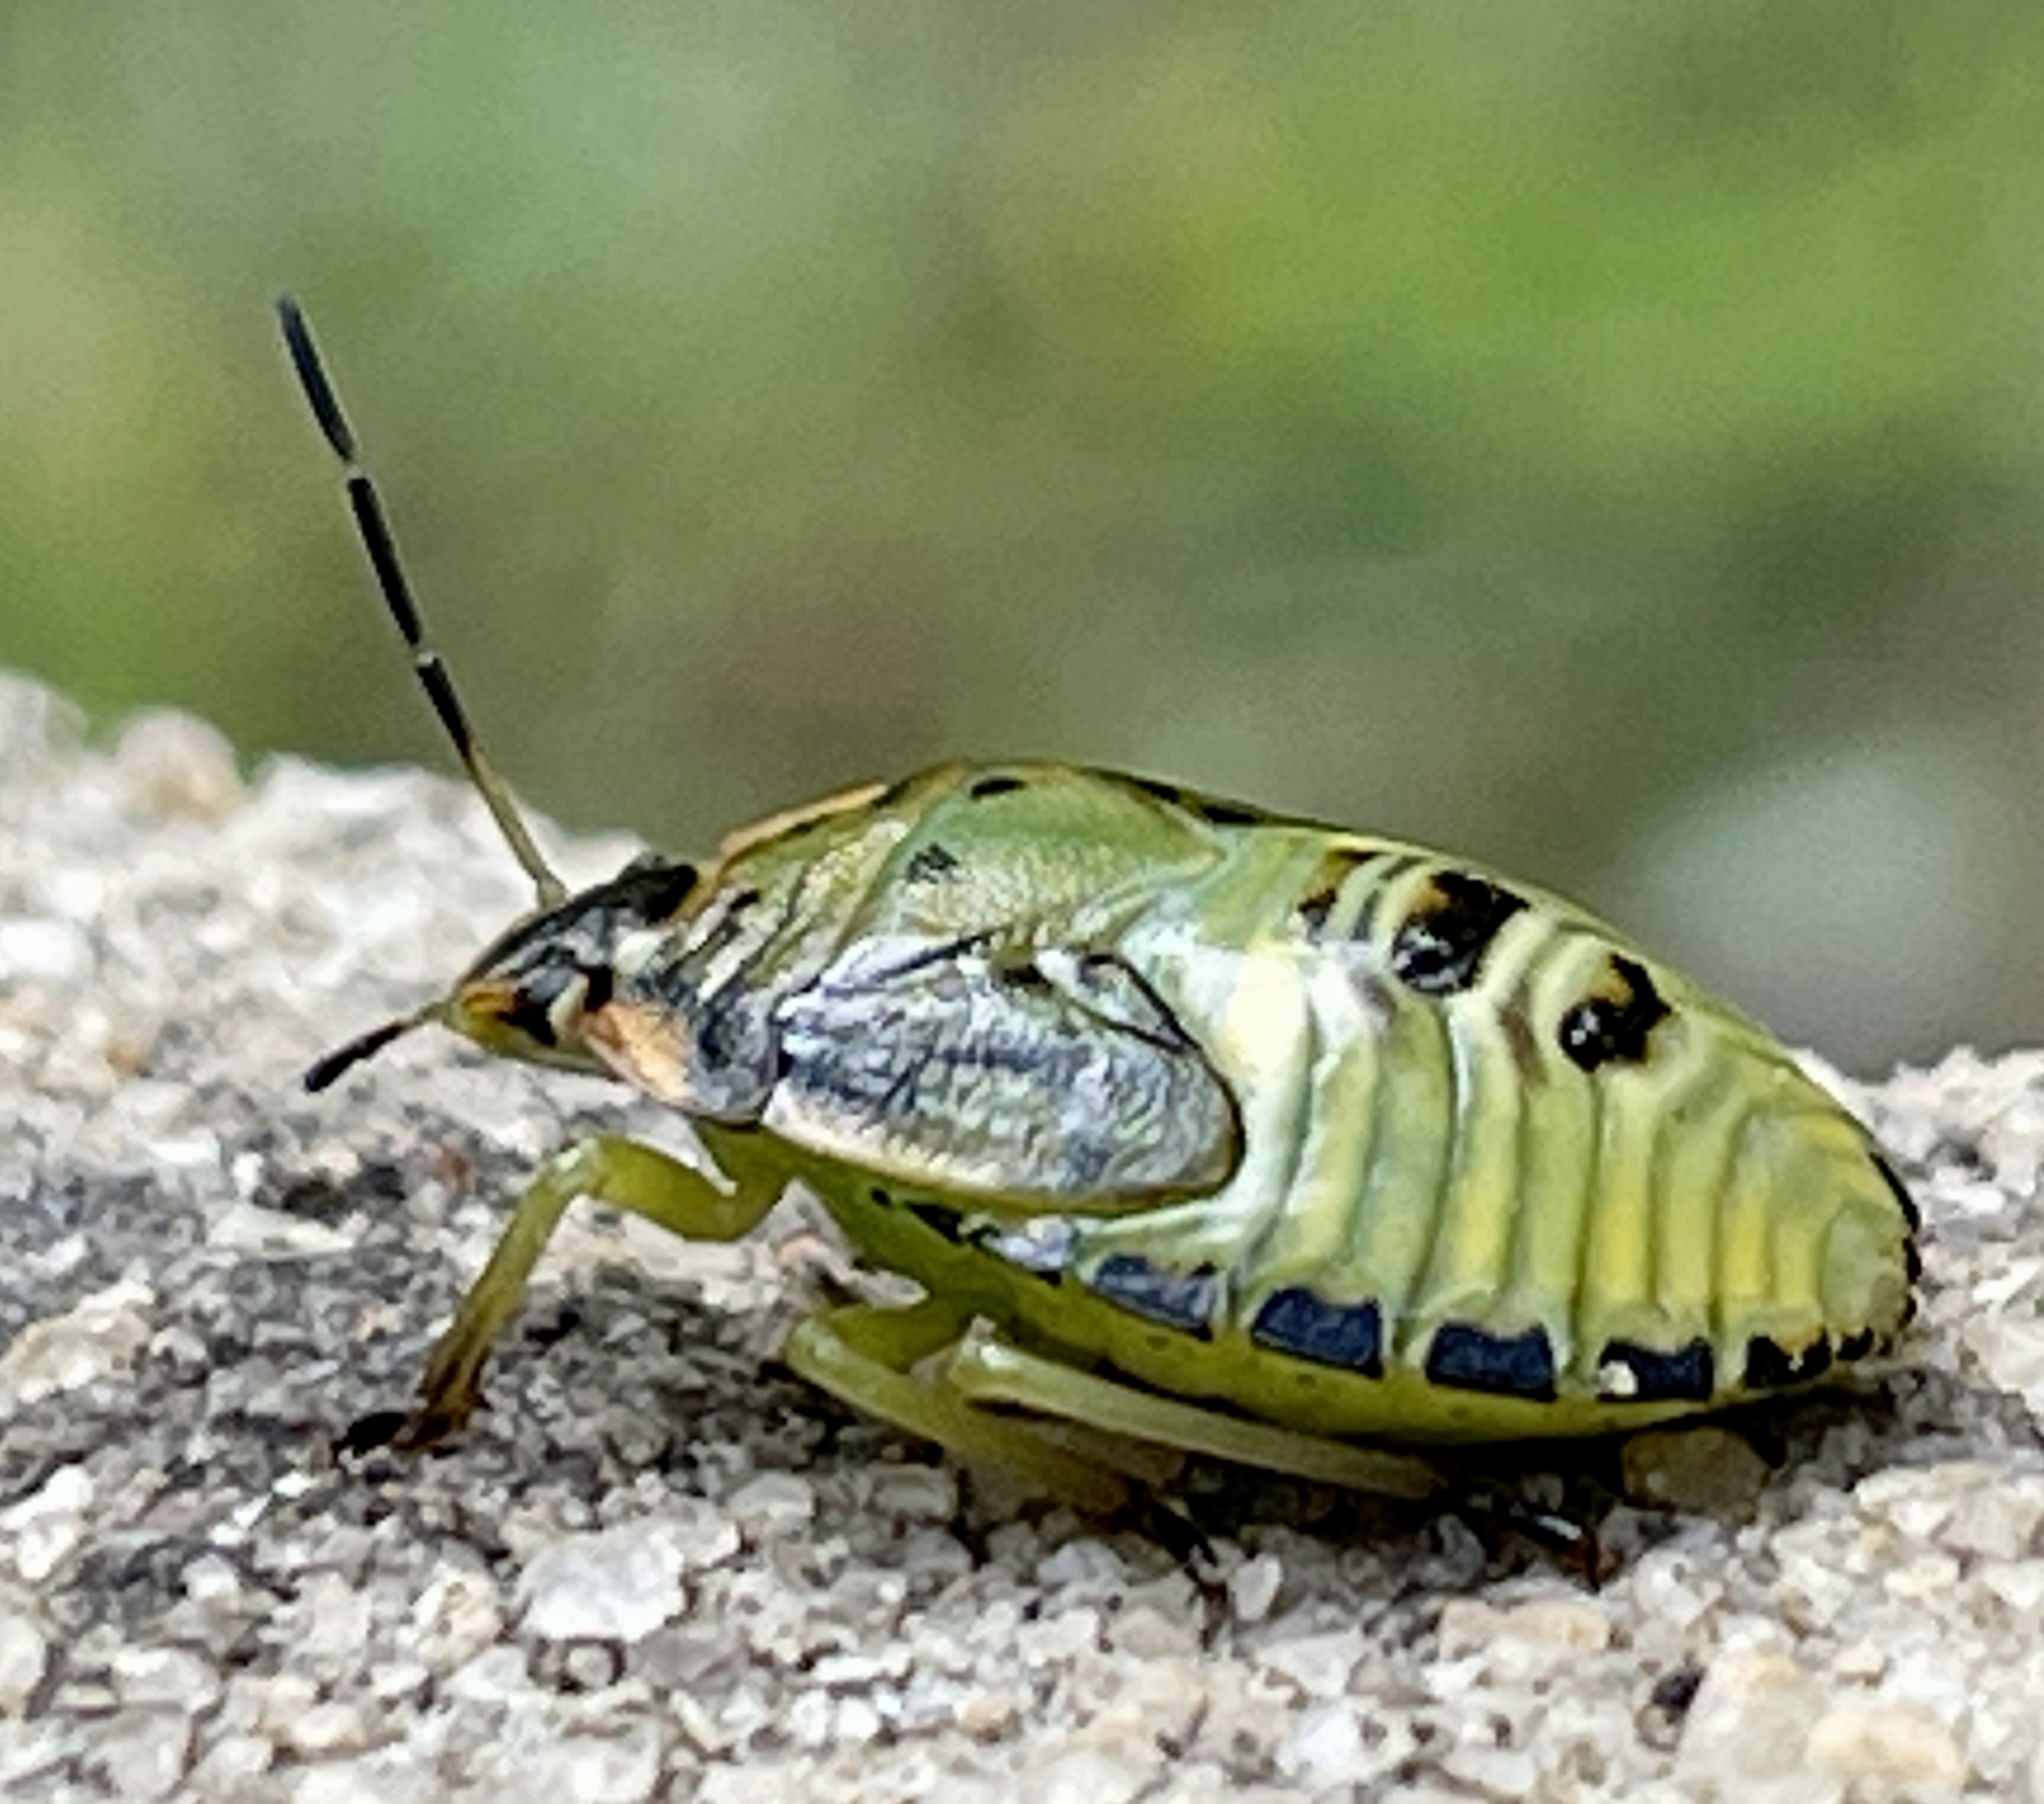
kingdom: Animalia
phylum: Arthropoda
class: Insecta
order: Hemiptera
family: Pentatomidae
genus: Chinavia
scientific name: Chinavia hilaris
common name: Green stink bug
